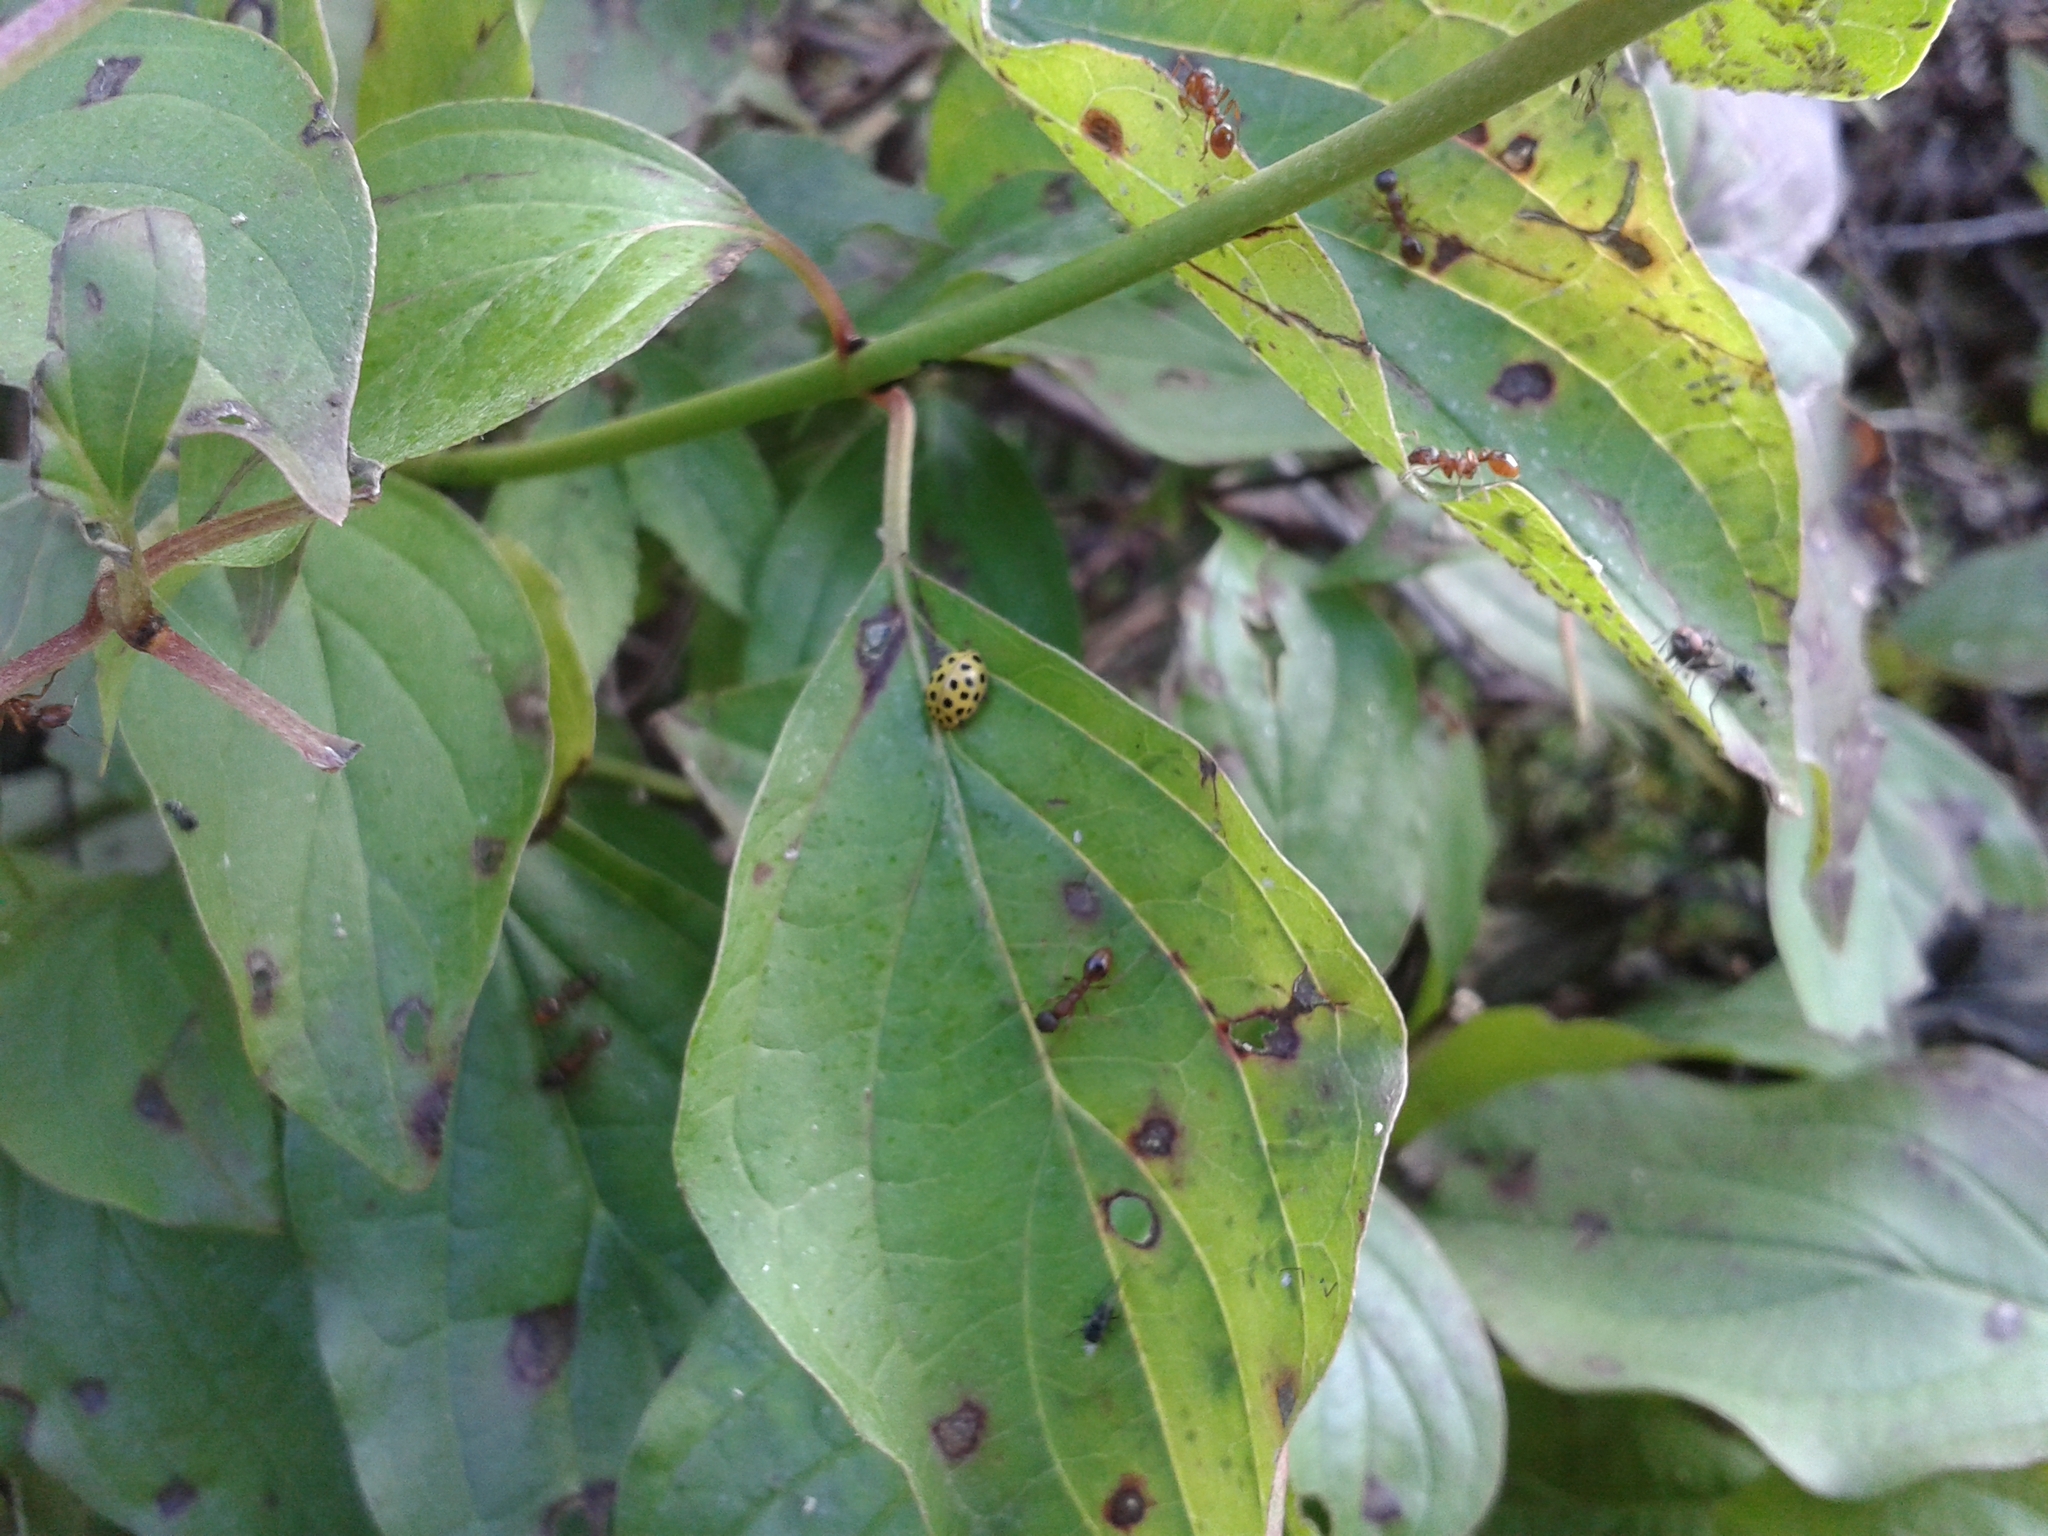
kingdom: Animalia
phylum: Arthropoda
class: Insecta
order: Coleoptera
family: Coccinellidae
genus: Psyllobora
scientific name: Psyllobora vigintiduopunctata
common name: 22-spot ladybird
